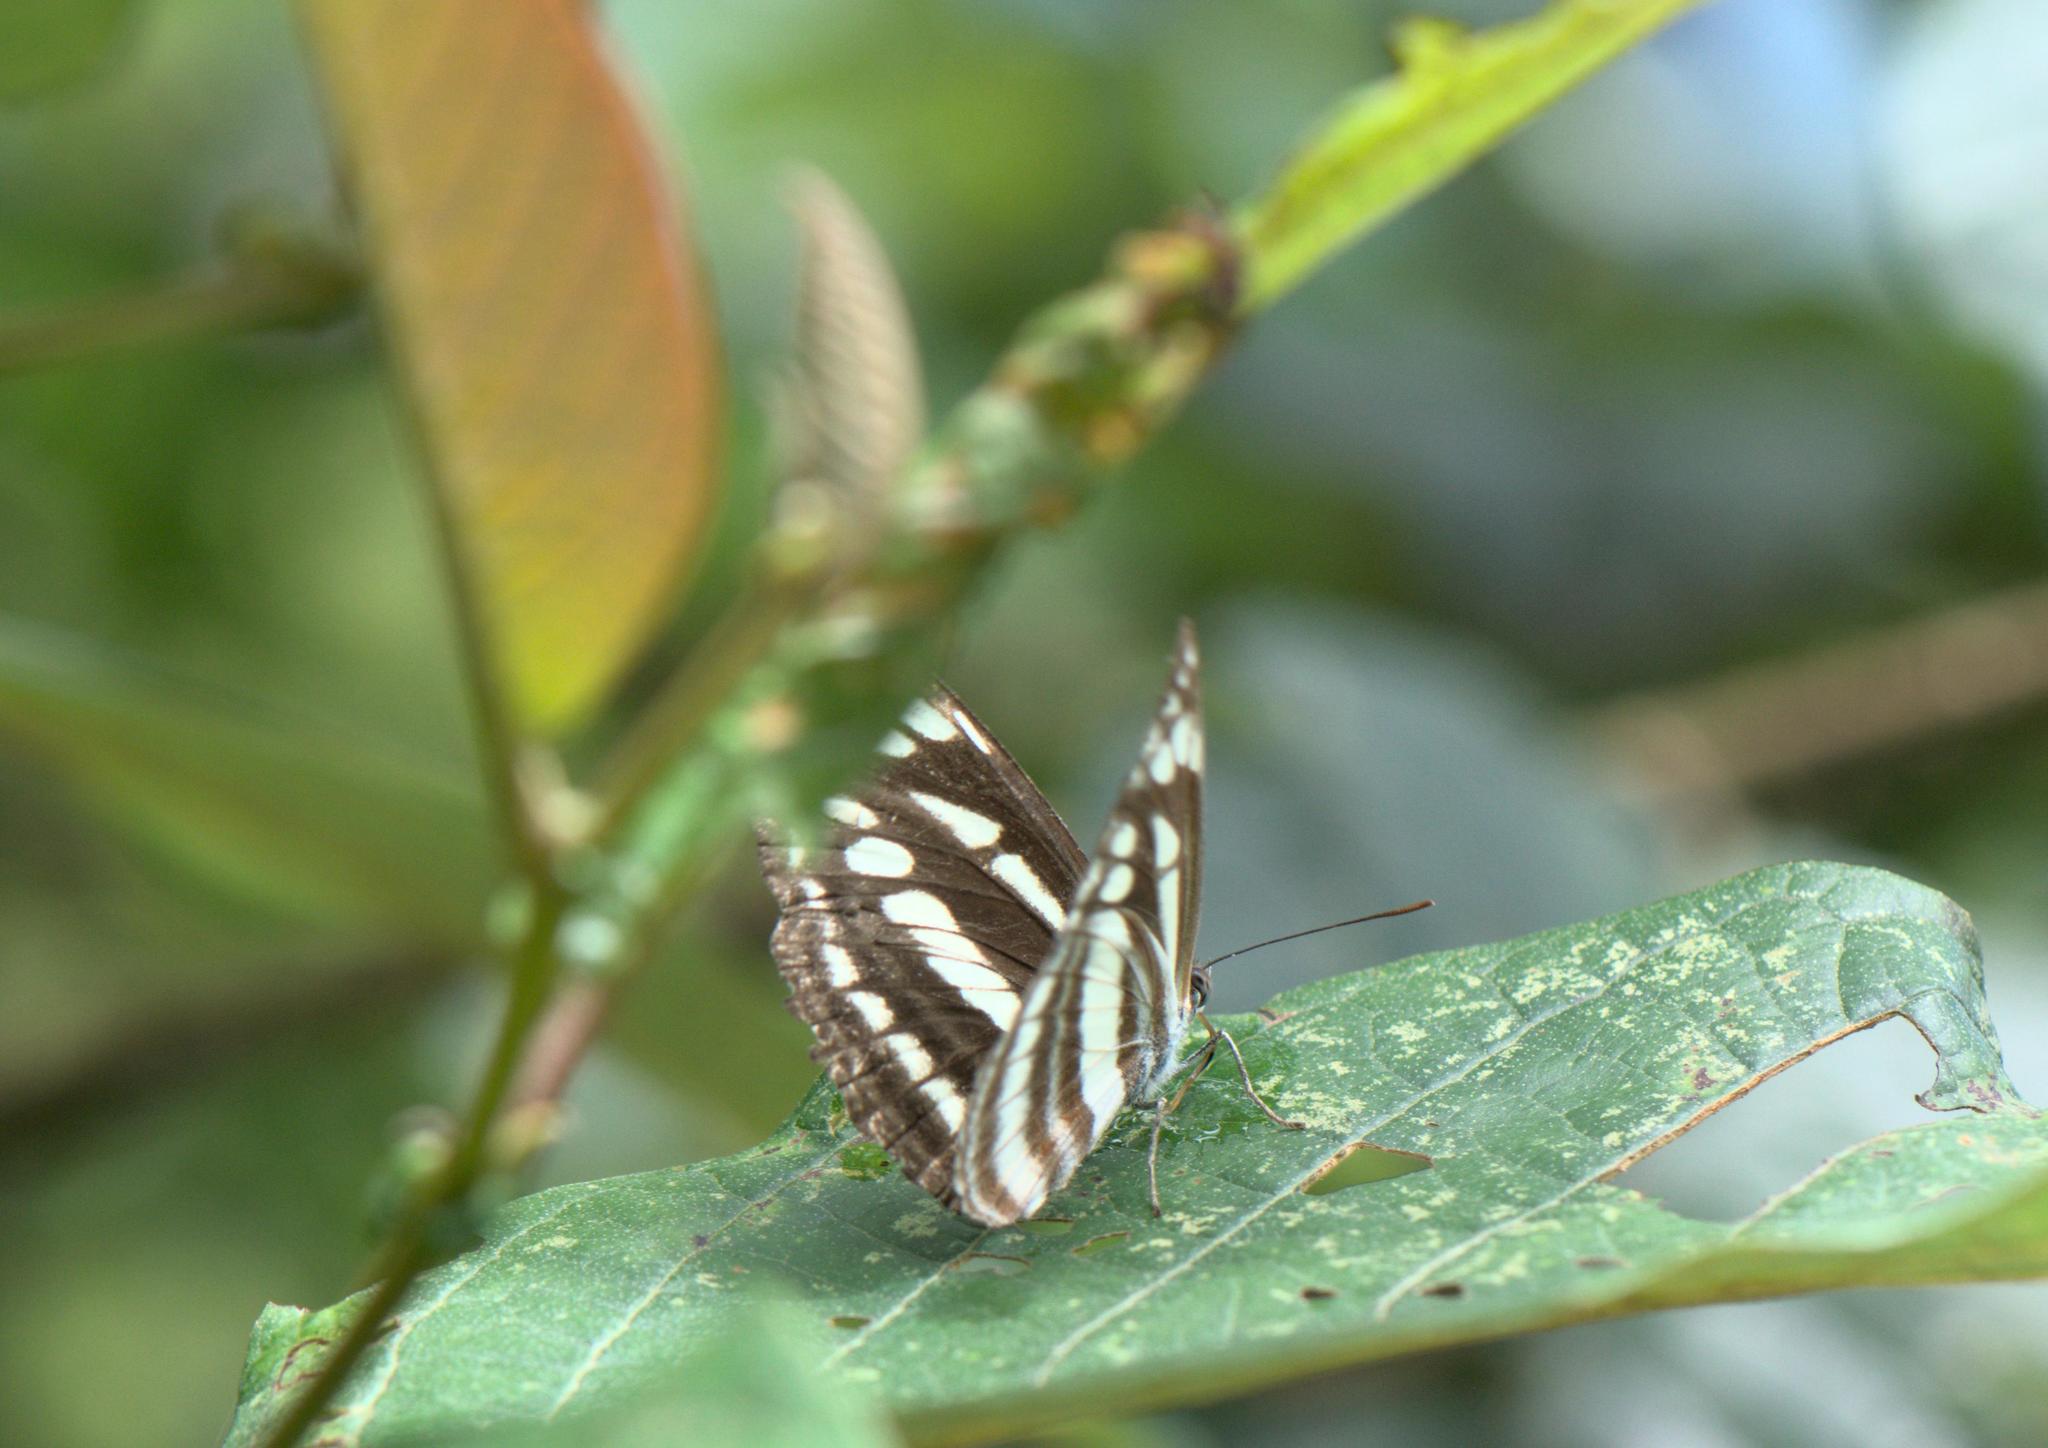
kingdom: Animalia
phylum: Arthropoda
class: Insecta
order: Lepidoptera
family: Nymphalidae
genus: Neptis
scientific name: Neptis soma
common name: Cream-spotted sailor
